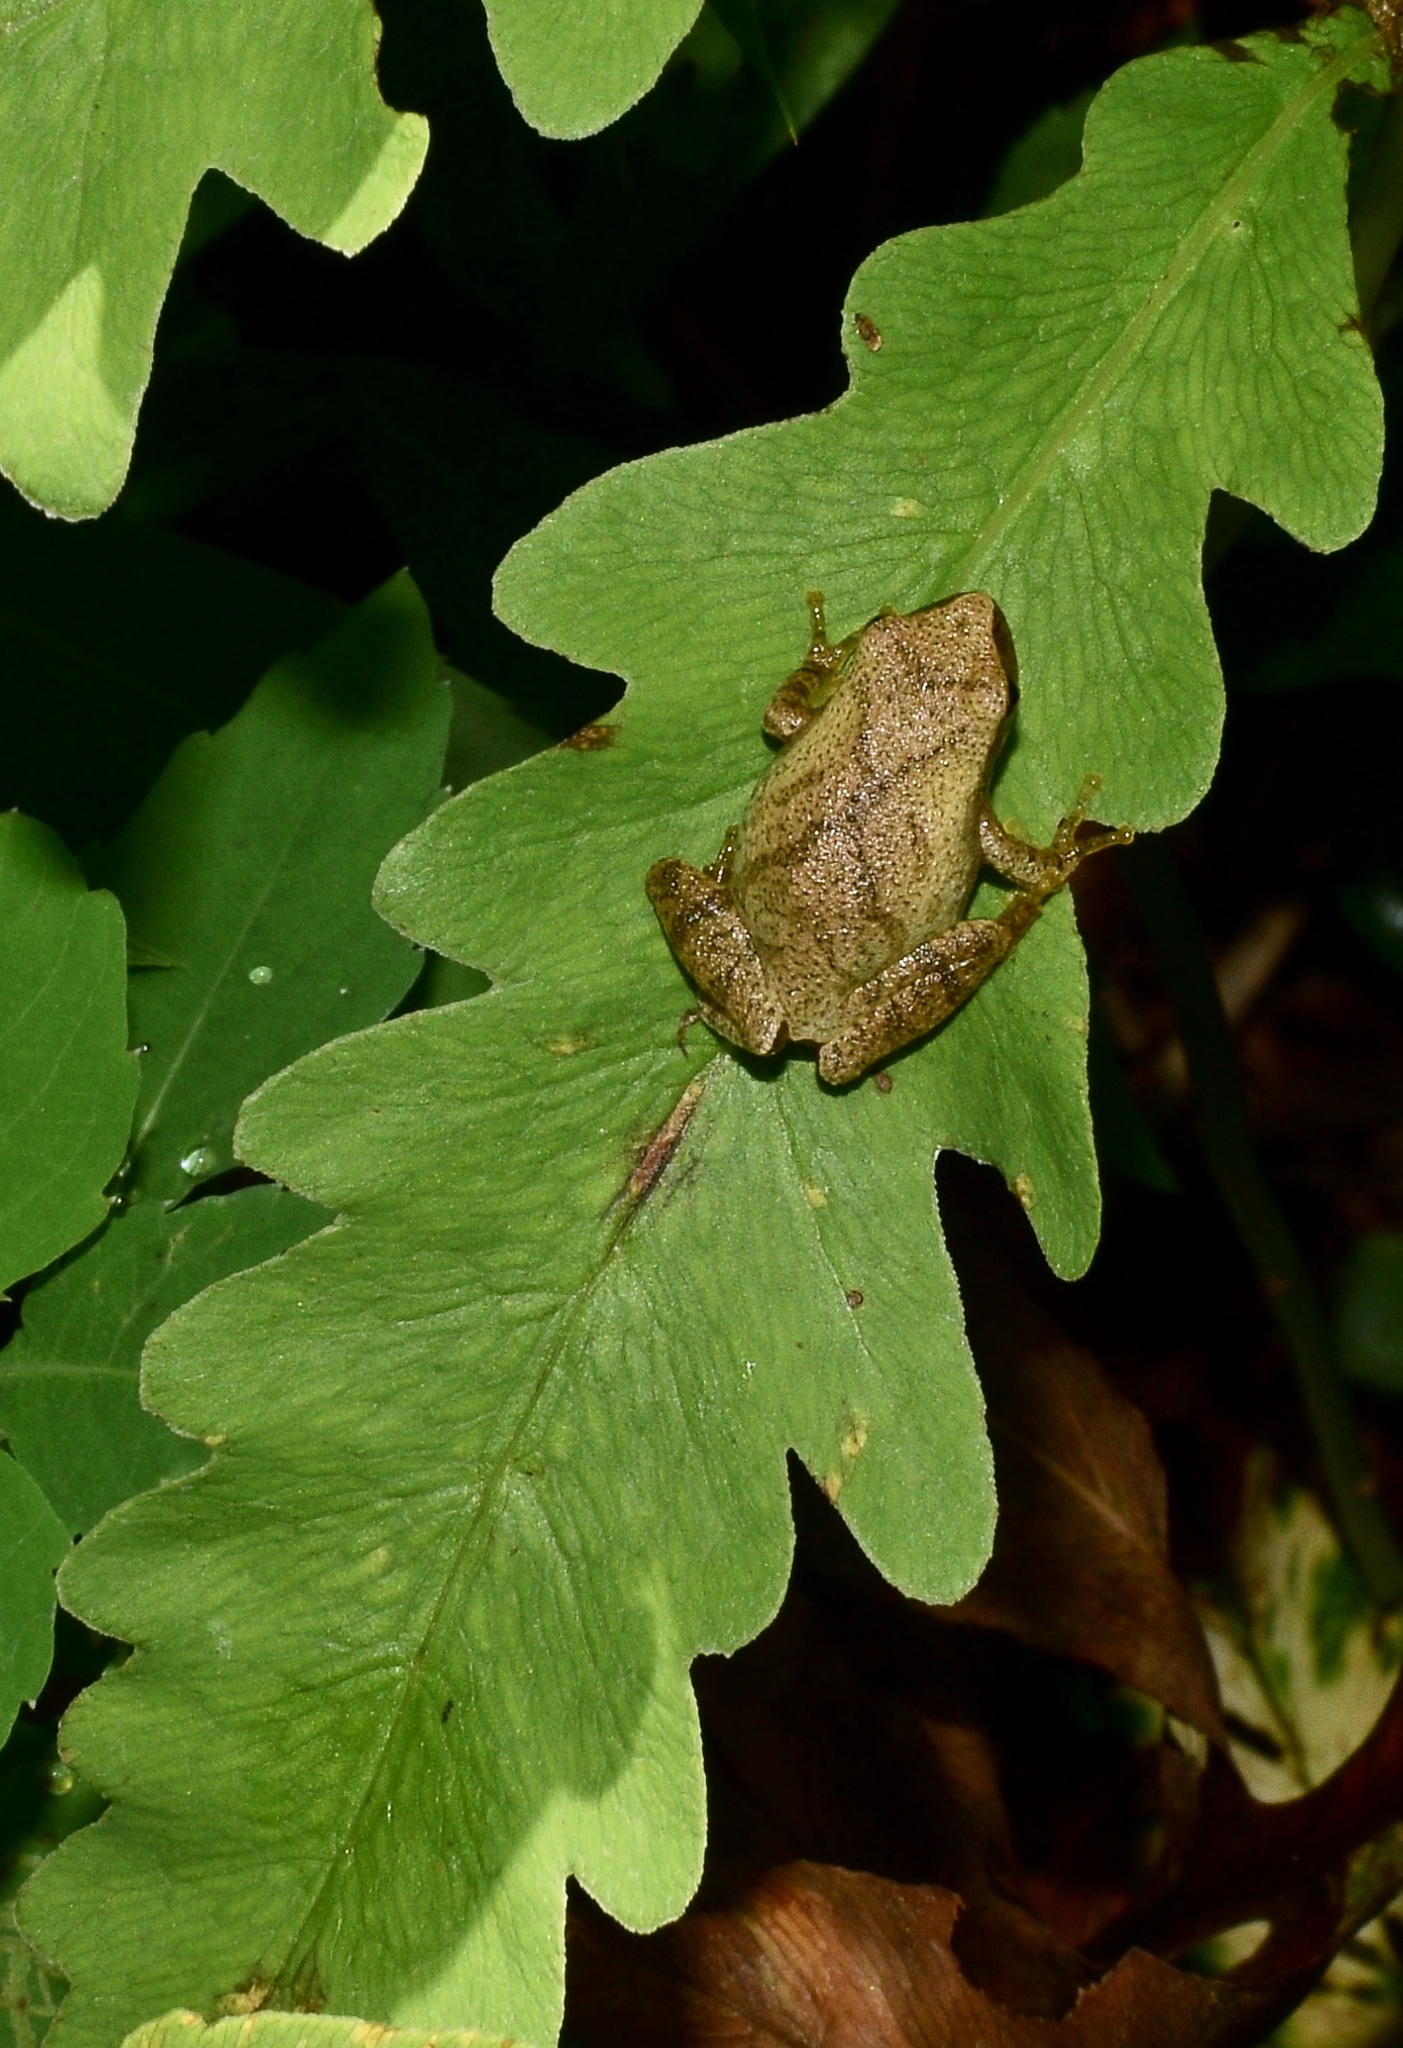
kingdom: Animalia
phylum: Chordata
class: Amphibia
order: Anura
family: Hylidae
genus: Pseudacris
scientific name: Pseudacris crucifer
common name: Spring peeper
